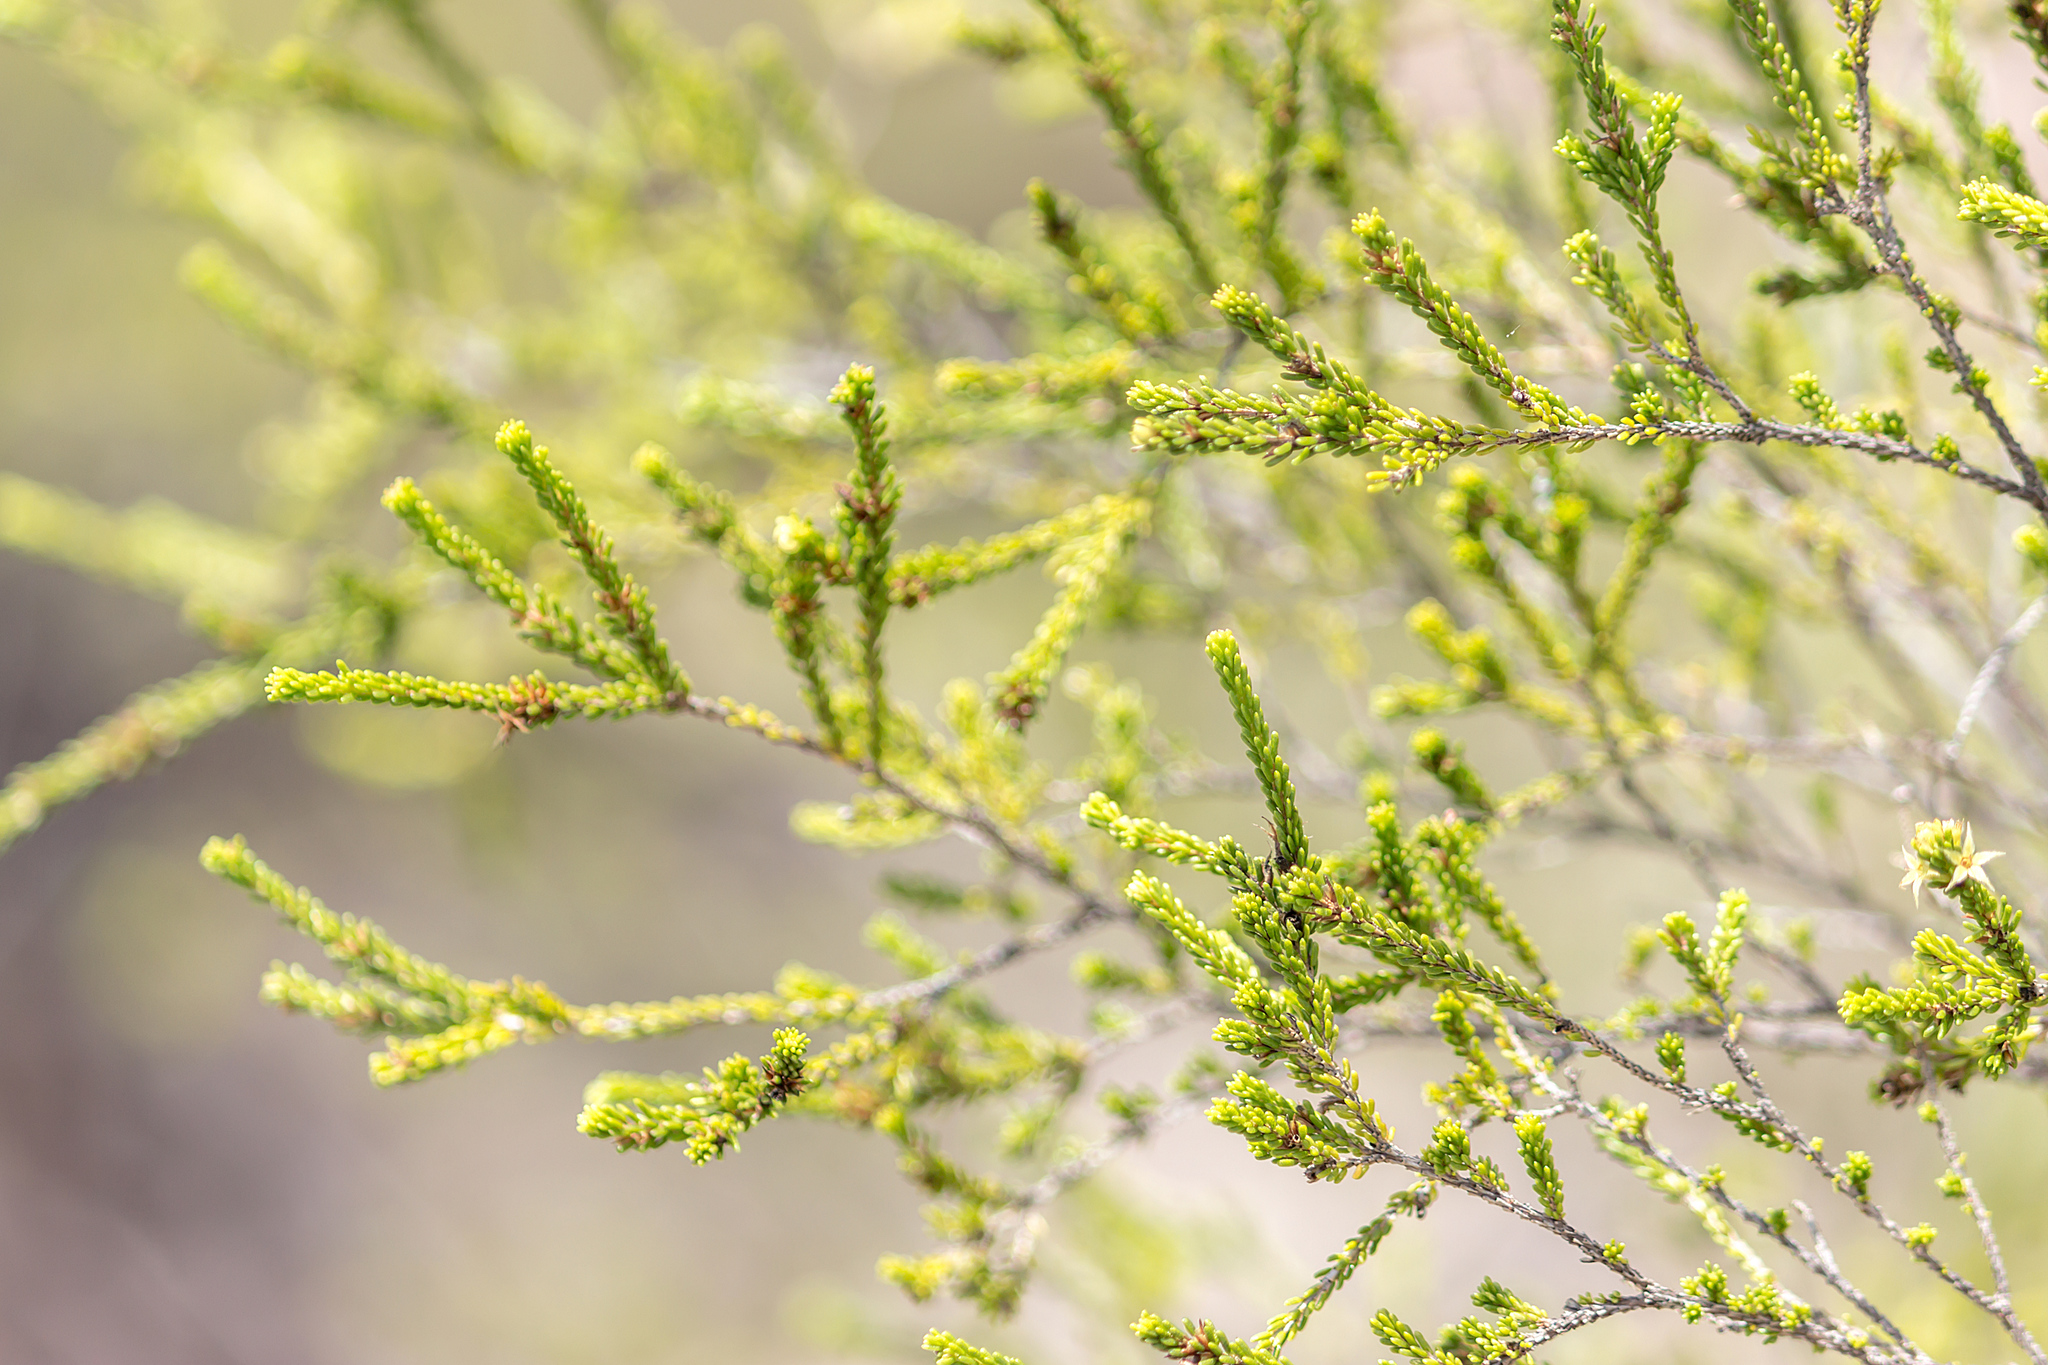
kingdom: Plantae
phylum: Tracheophyta
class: Magnoliopsida
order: Myrtales
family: Myrtaceae
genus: Calytrix
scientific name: Calytrix achaeta
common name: Fringe myrtle
